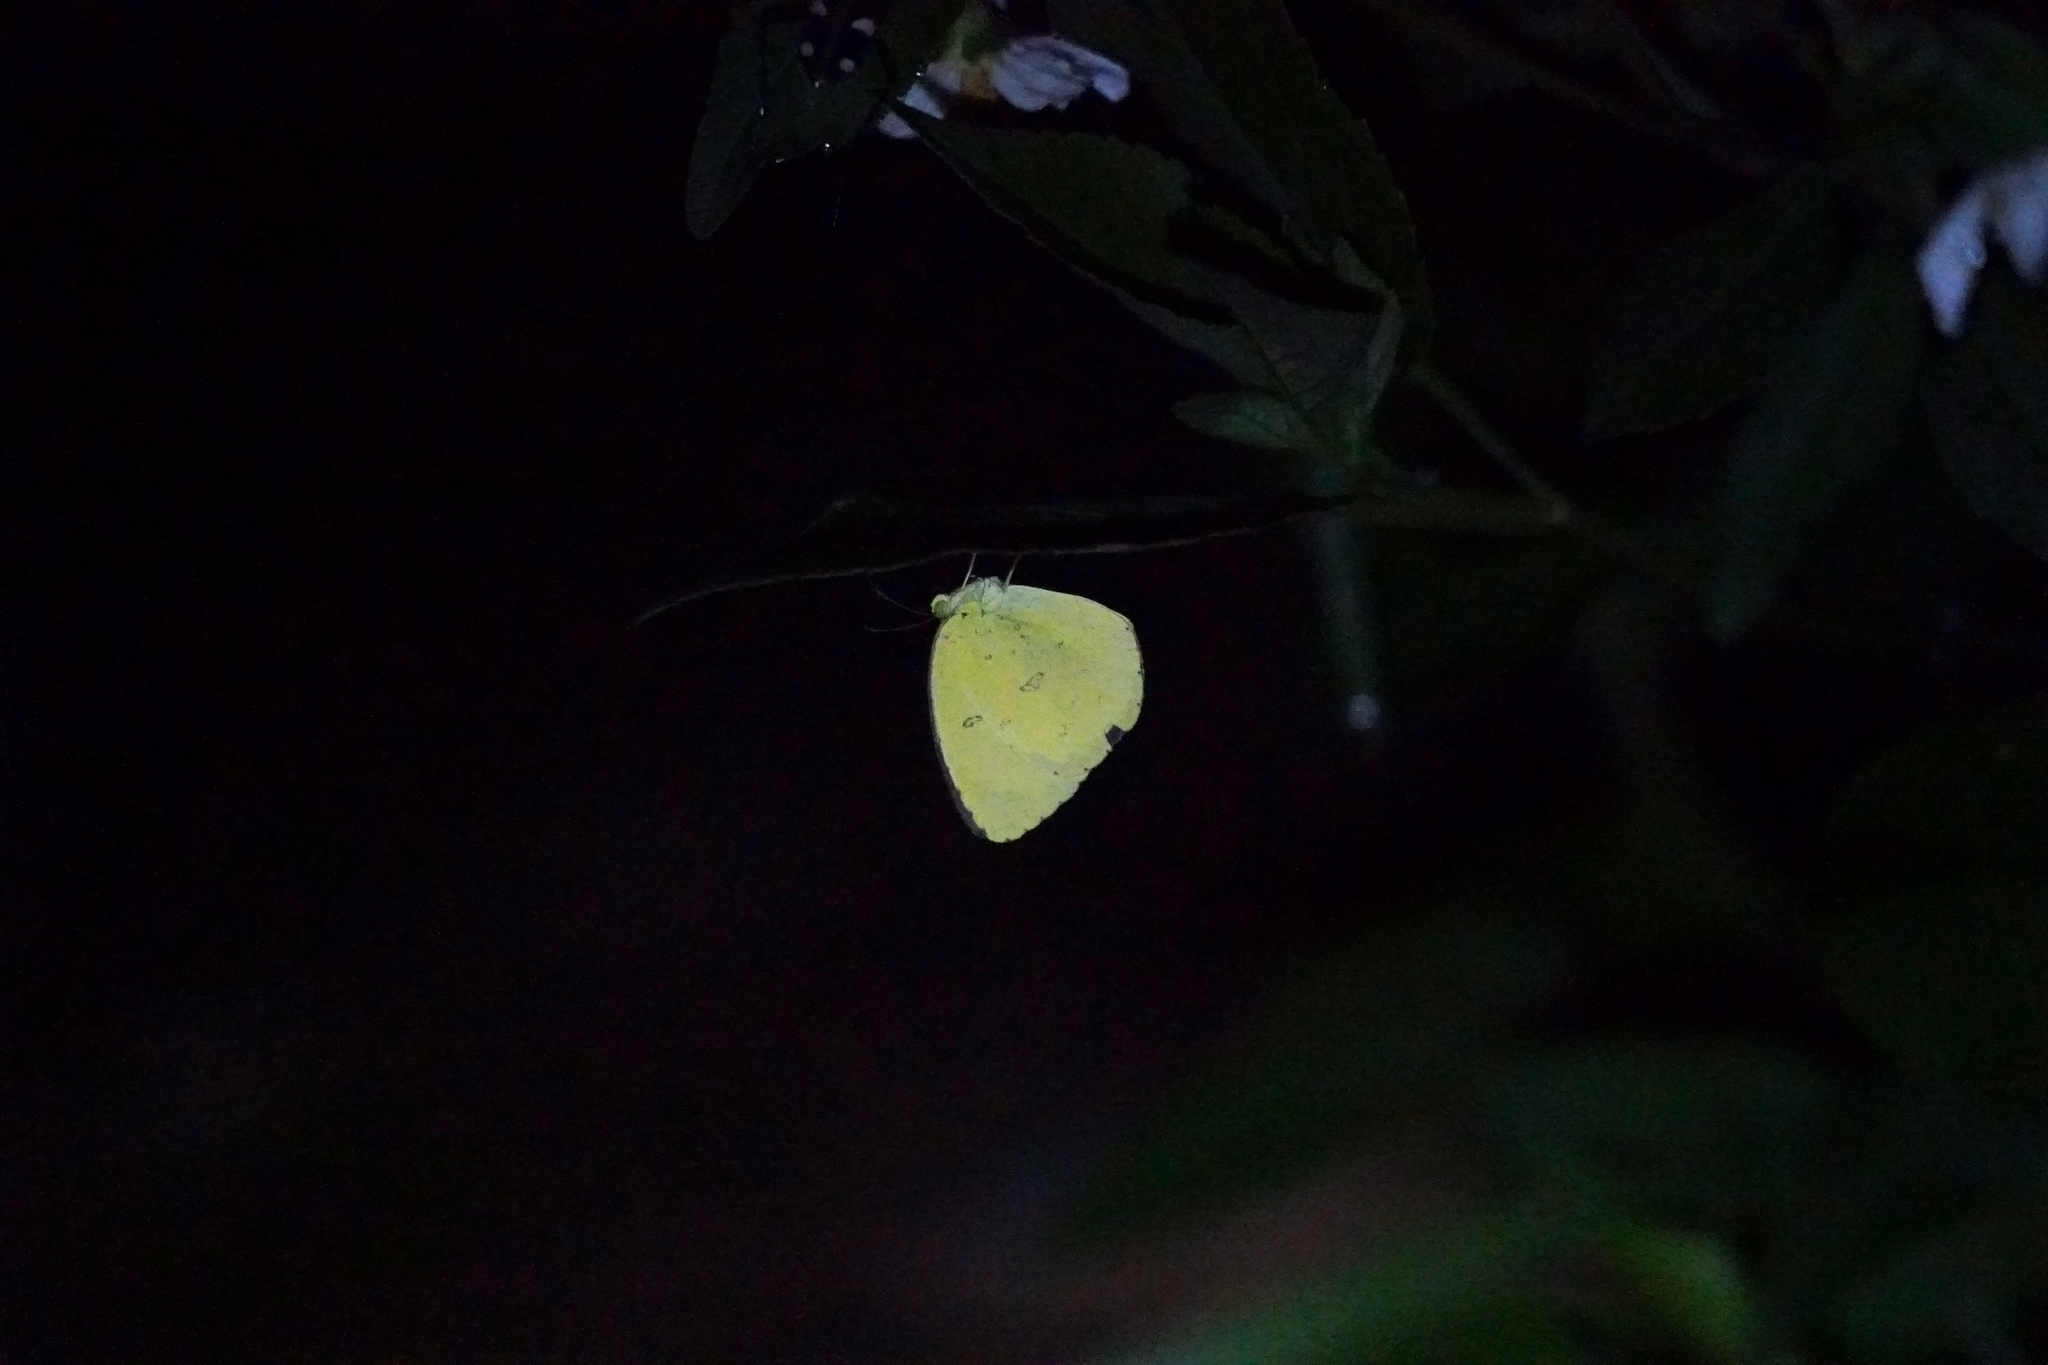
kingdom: Animalia
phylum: Arthropoda
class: Insecta
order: Lepidoptera
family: Pieridae
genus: Eurema
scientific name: Eurema hecabe
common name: Pale grass yellow
